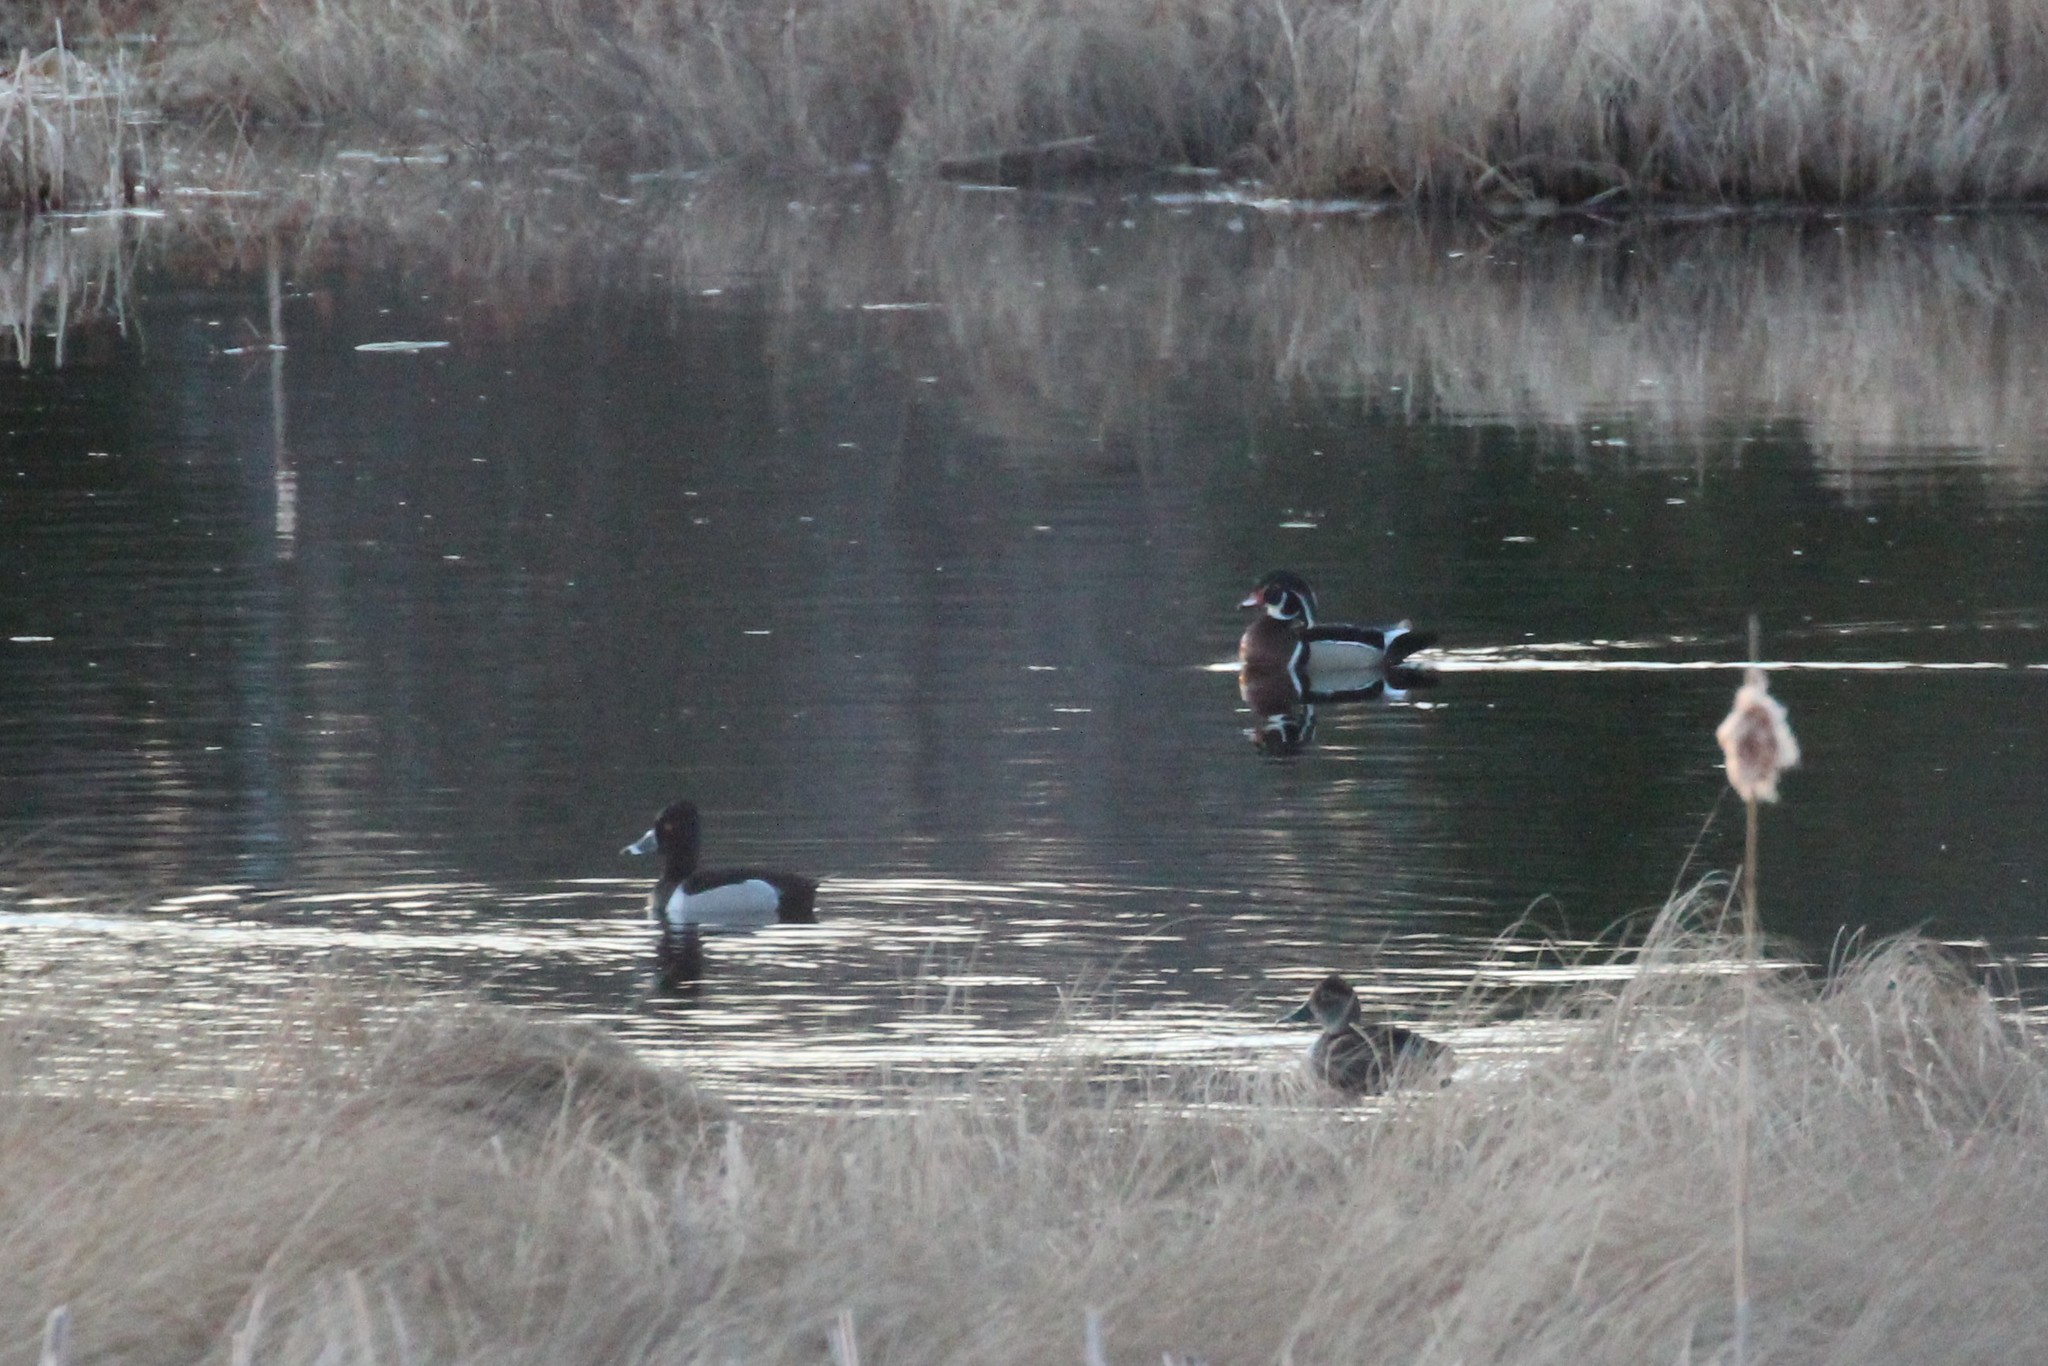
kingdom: Animalia
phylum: Chordata
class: Aves
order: Anseriformes
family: Anatidae
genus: Aythya
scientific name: Aythya collaris
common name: Ring-necked duck
